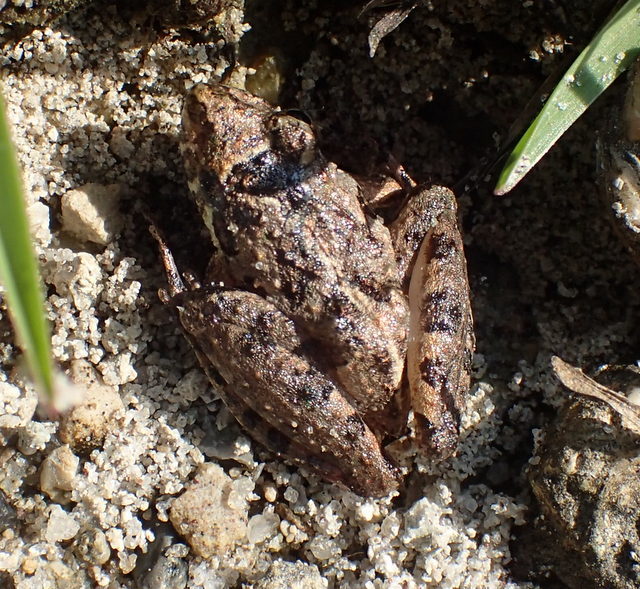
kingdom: Animalia
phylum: Chordata
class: Amphibia
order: Anura
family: Hylidae
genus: Acris
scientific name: Acris gryllus
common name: Southern cricket frog
